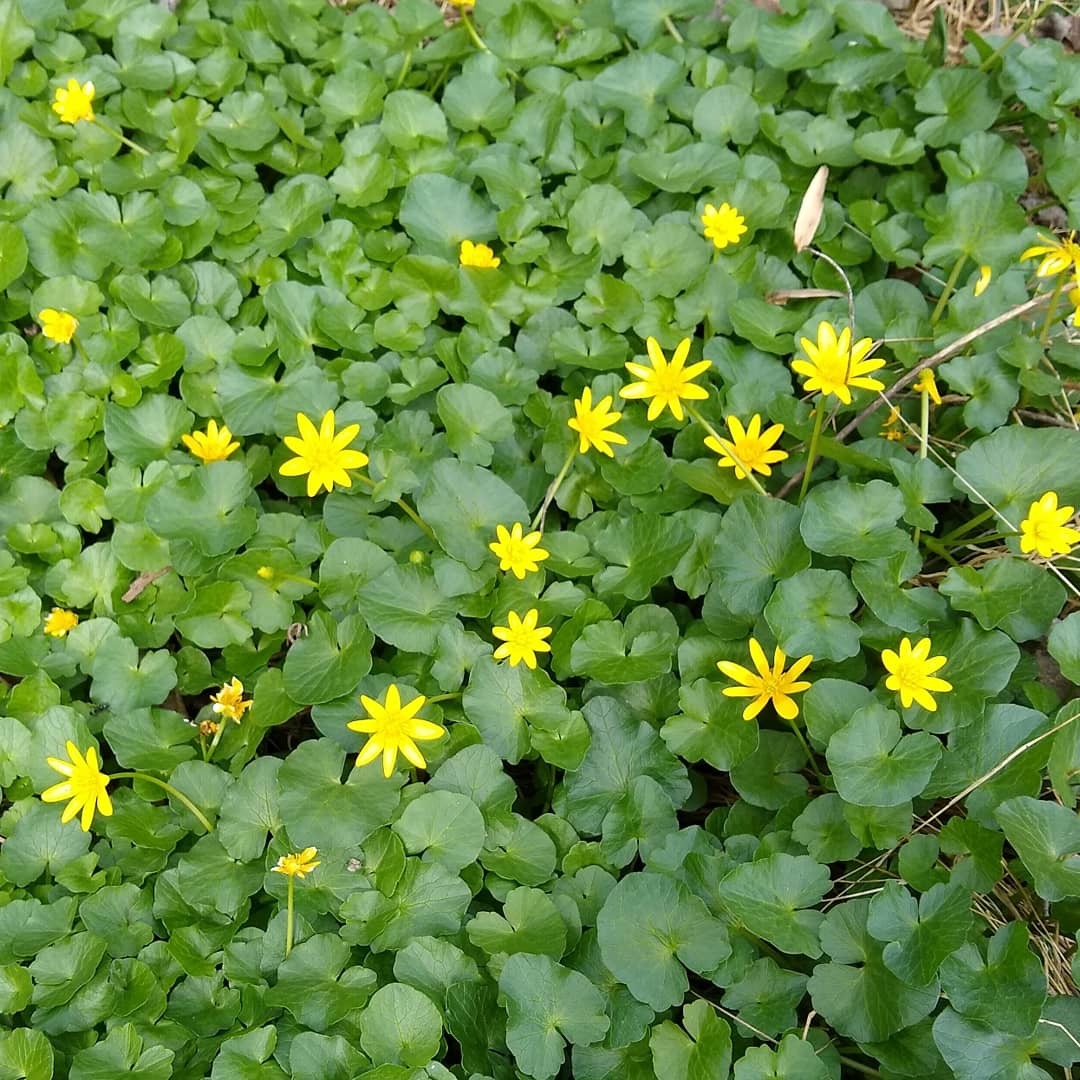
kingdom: Plantae
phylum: Tracheophyta
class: Magnoliopsida
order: Ranunculales
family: Ranunculaceae
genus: Ficaria
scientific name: Ficaria verna
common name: Lesser celandine
